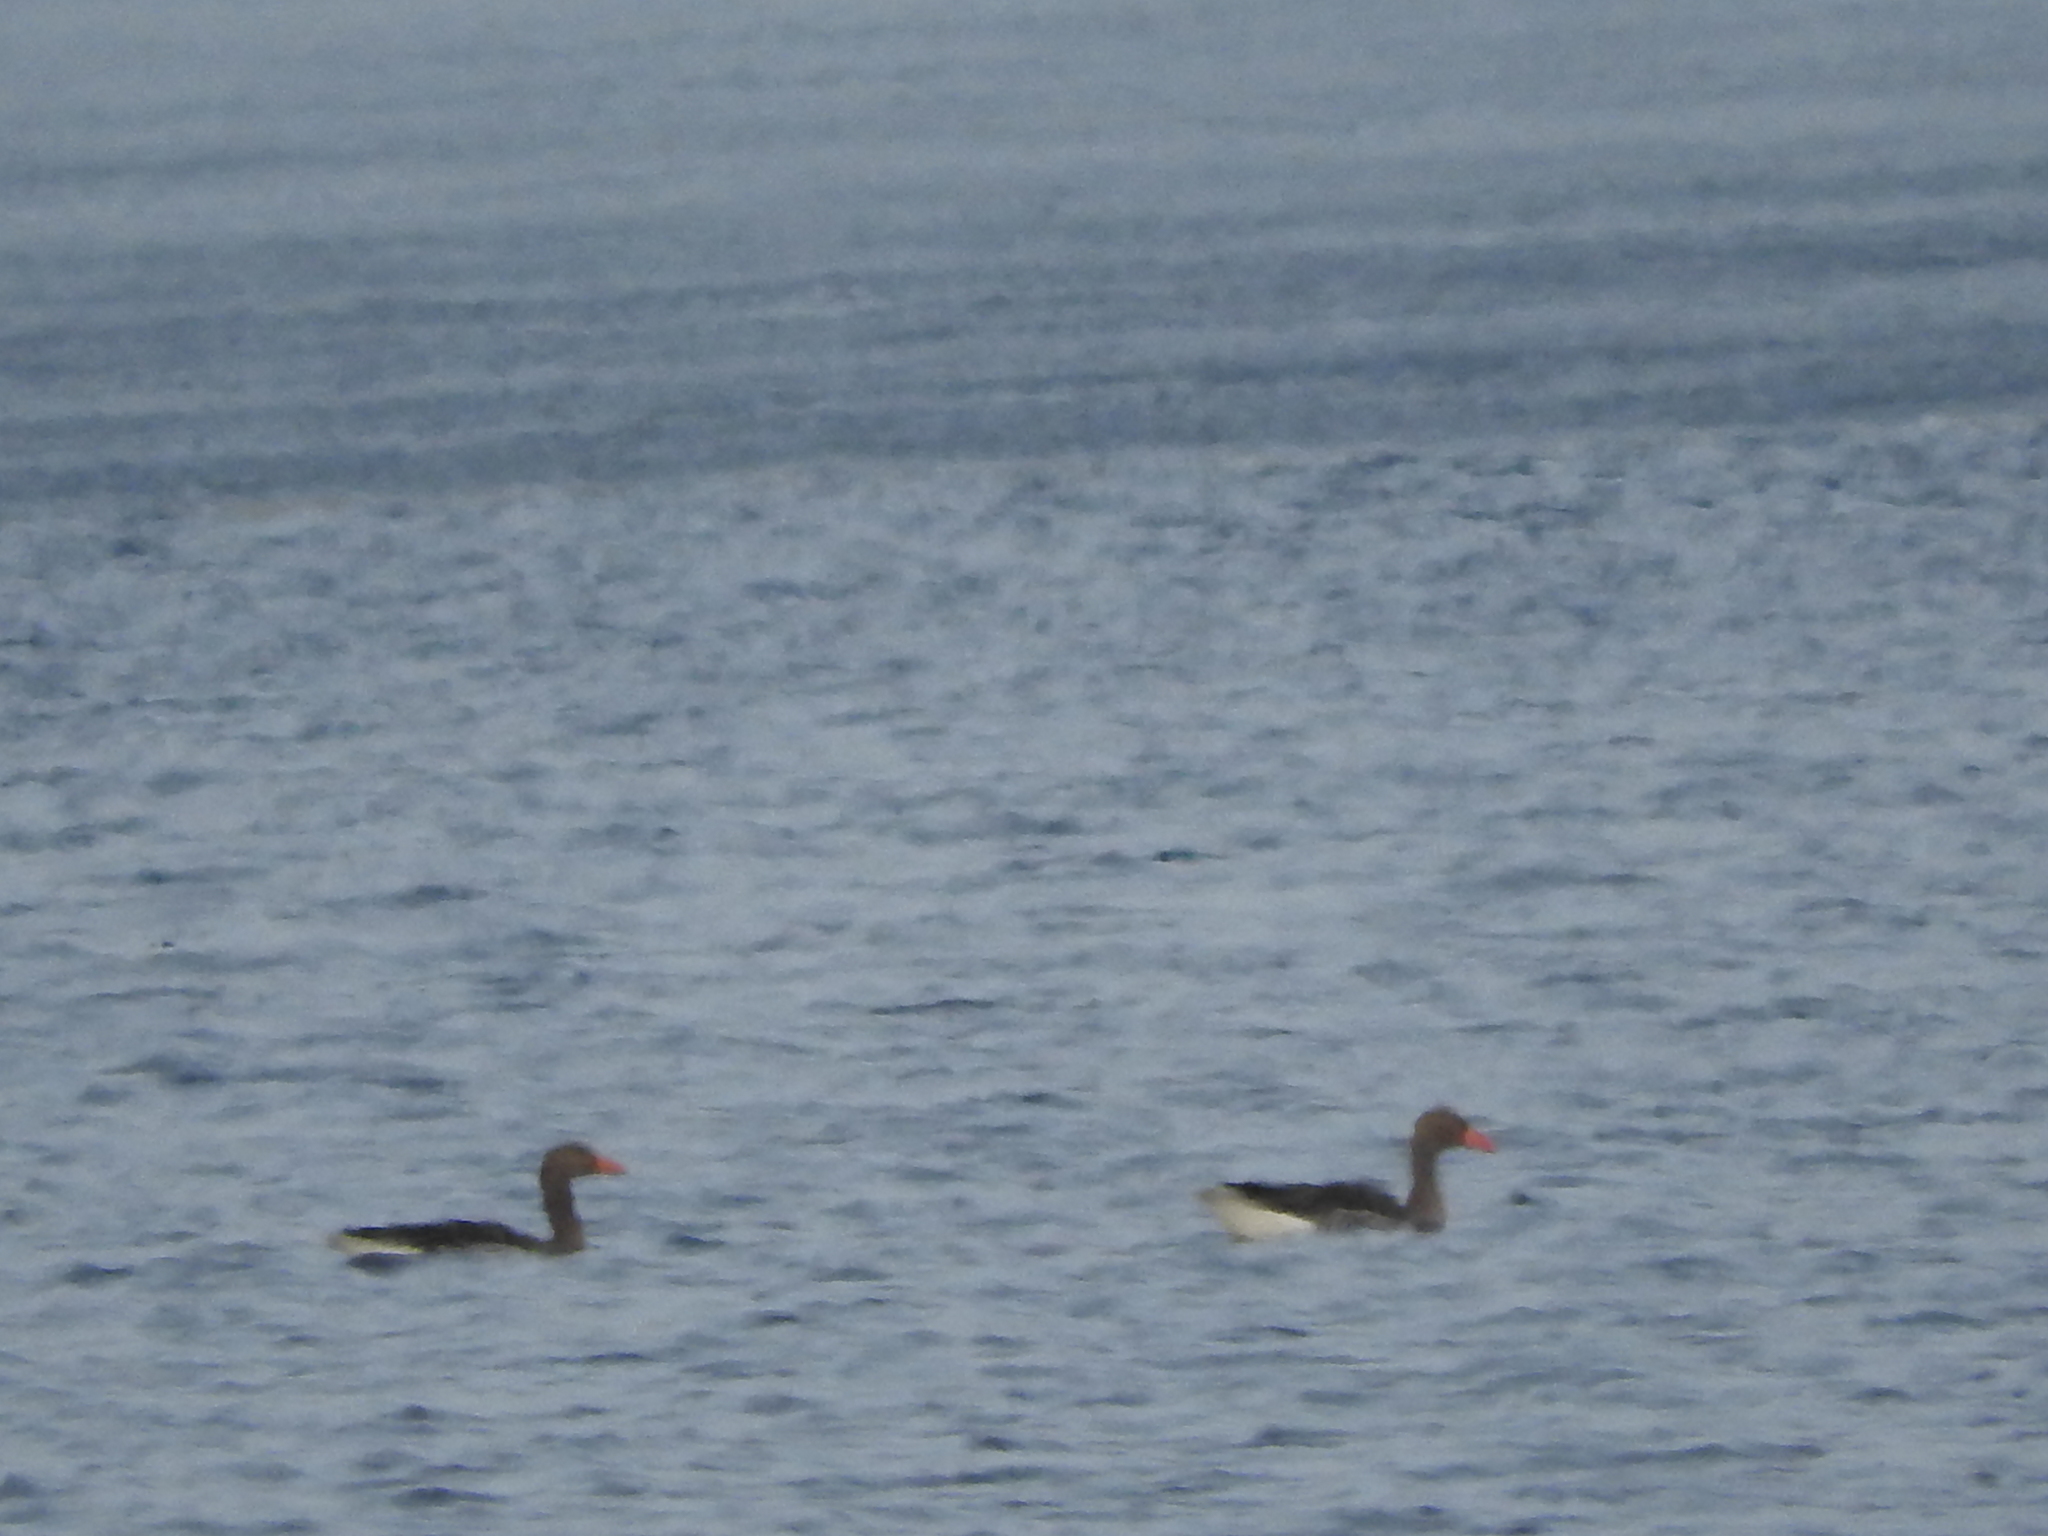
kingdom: Animalia
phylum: Chordata
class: Aves
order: Anseriformes
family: Anatidae
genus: Anser
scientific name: Anser anser
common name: Greylag goose
